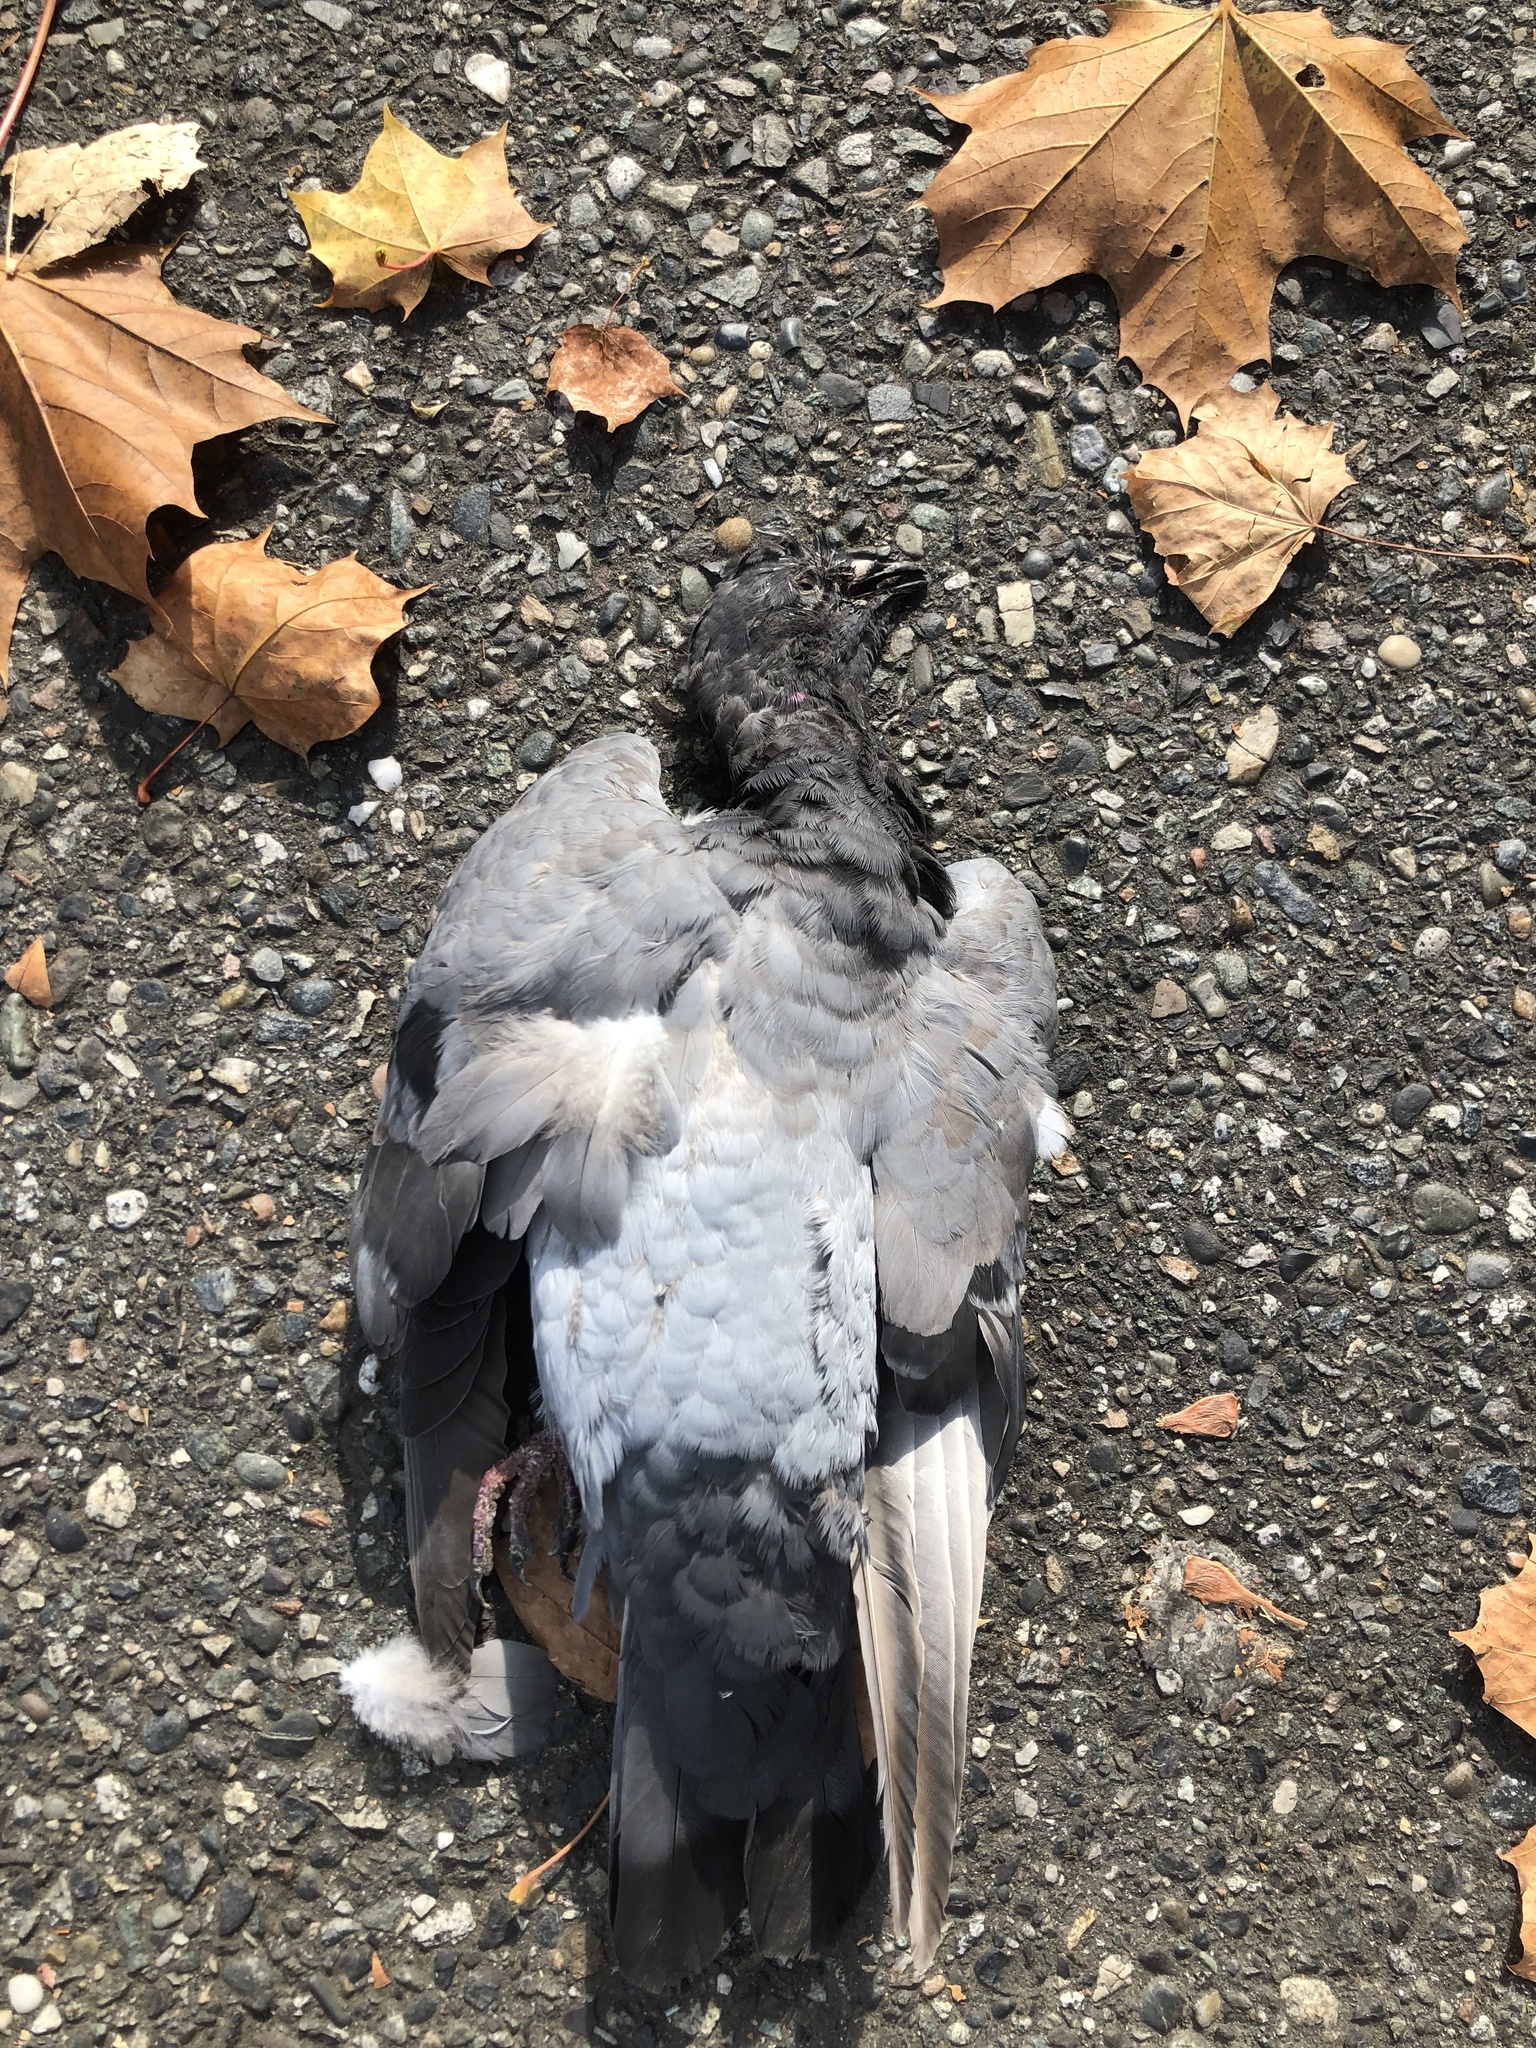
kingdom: Animalia
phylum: Chordata
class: Aves
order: Columbiformes
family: Columbidae
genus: Columba
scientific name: Columba livia
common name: Rock pigeon
